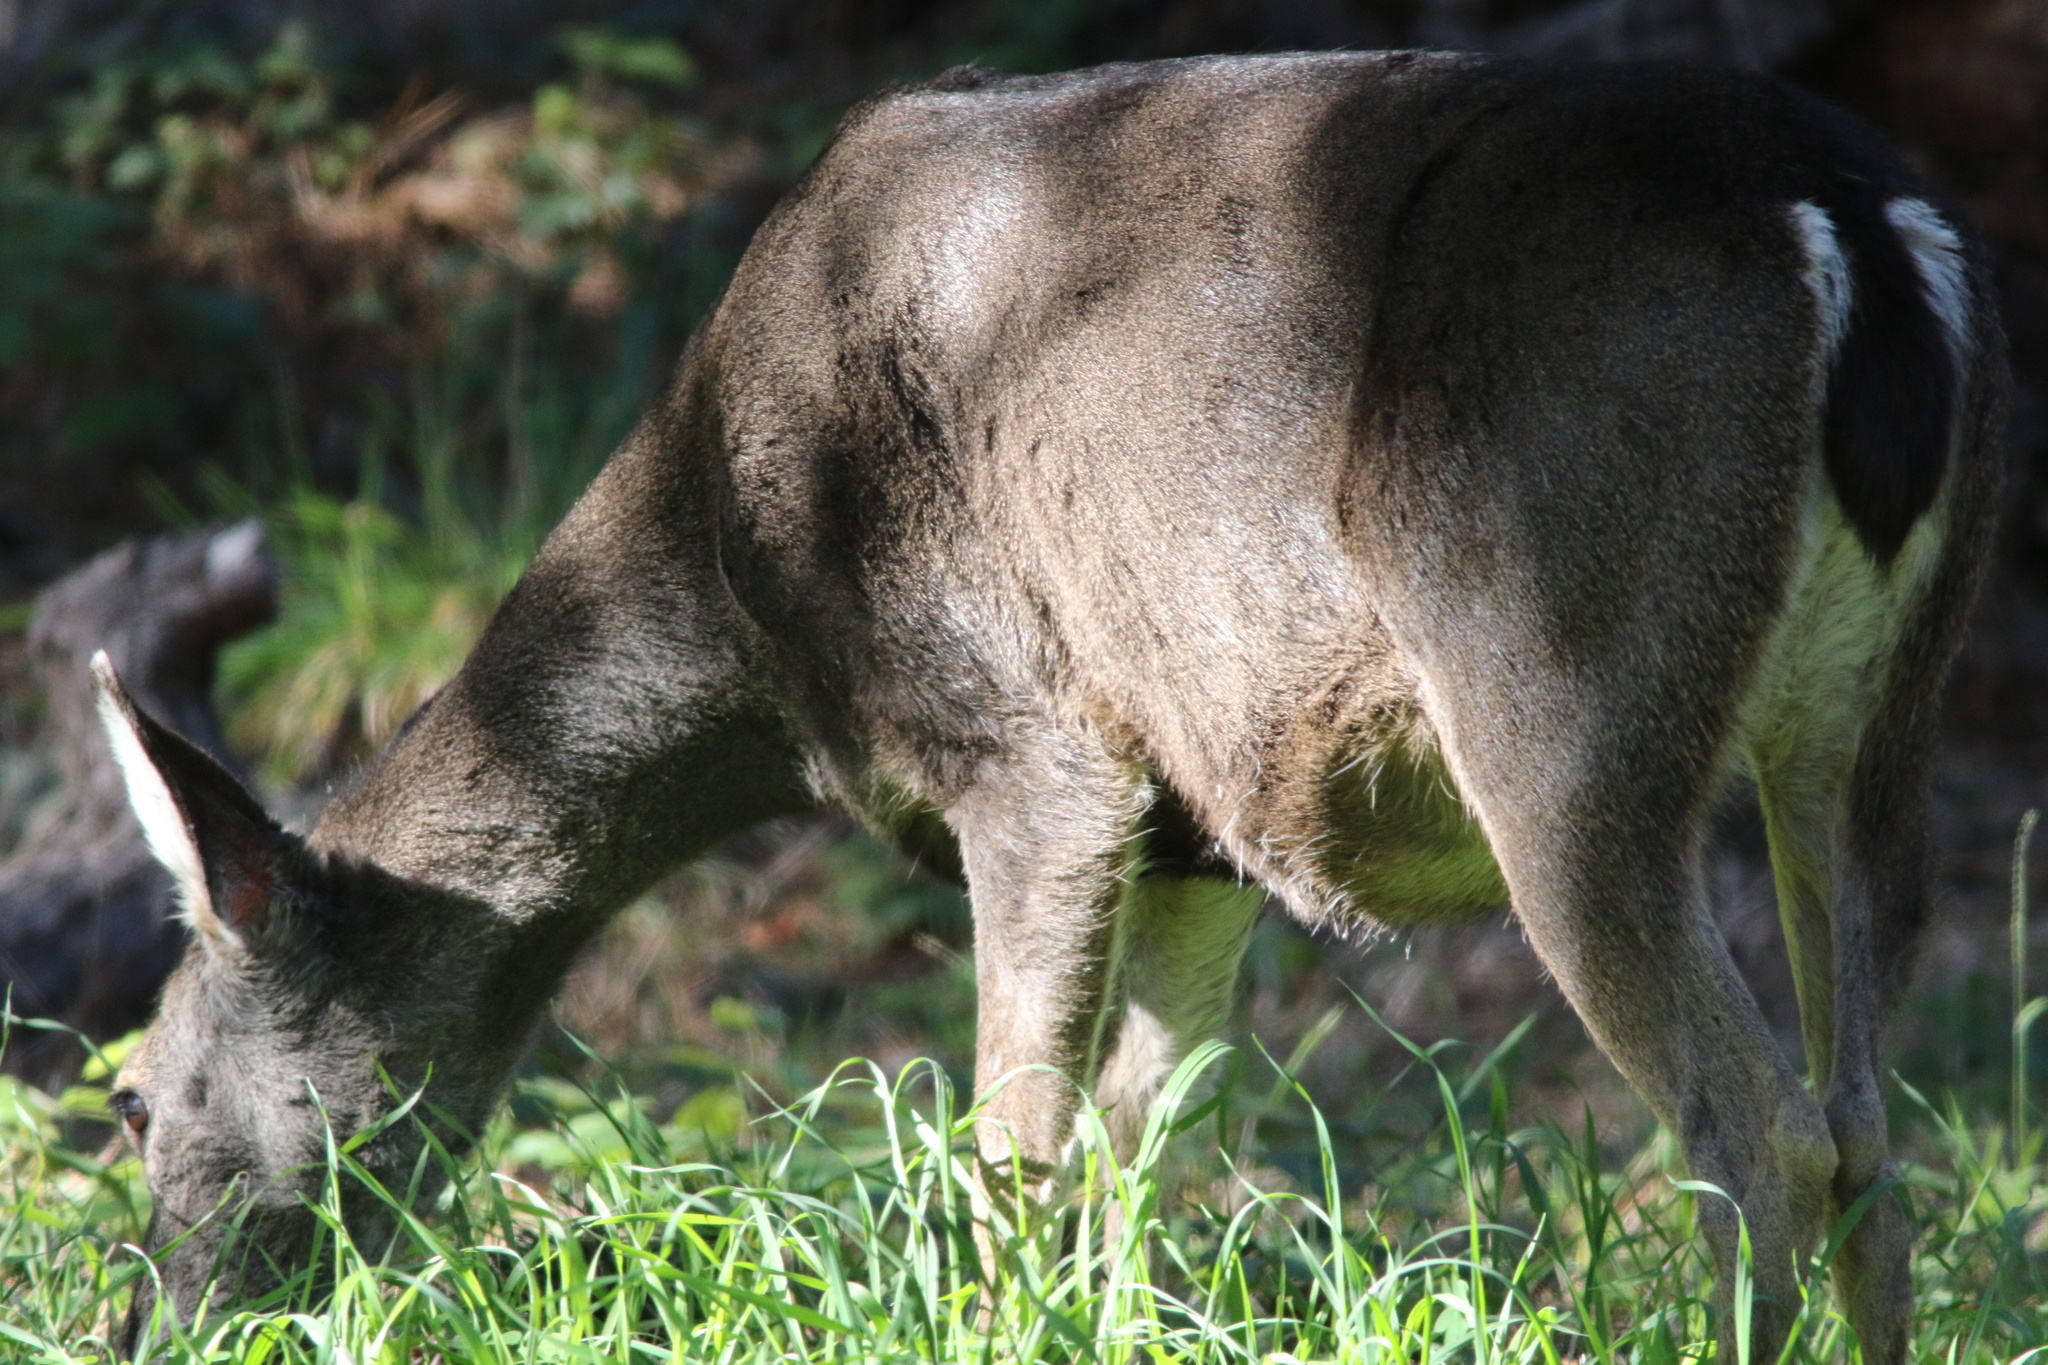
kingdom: Animalia
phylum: Chordata
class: Mammalia
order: Artiodactyla
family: Cervidae
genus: Odocoileus
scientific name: Odocoileus hemionus
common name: Mule deer
